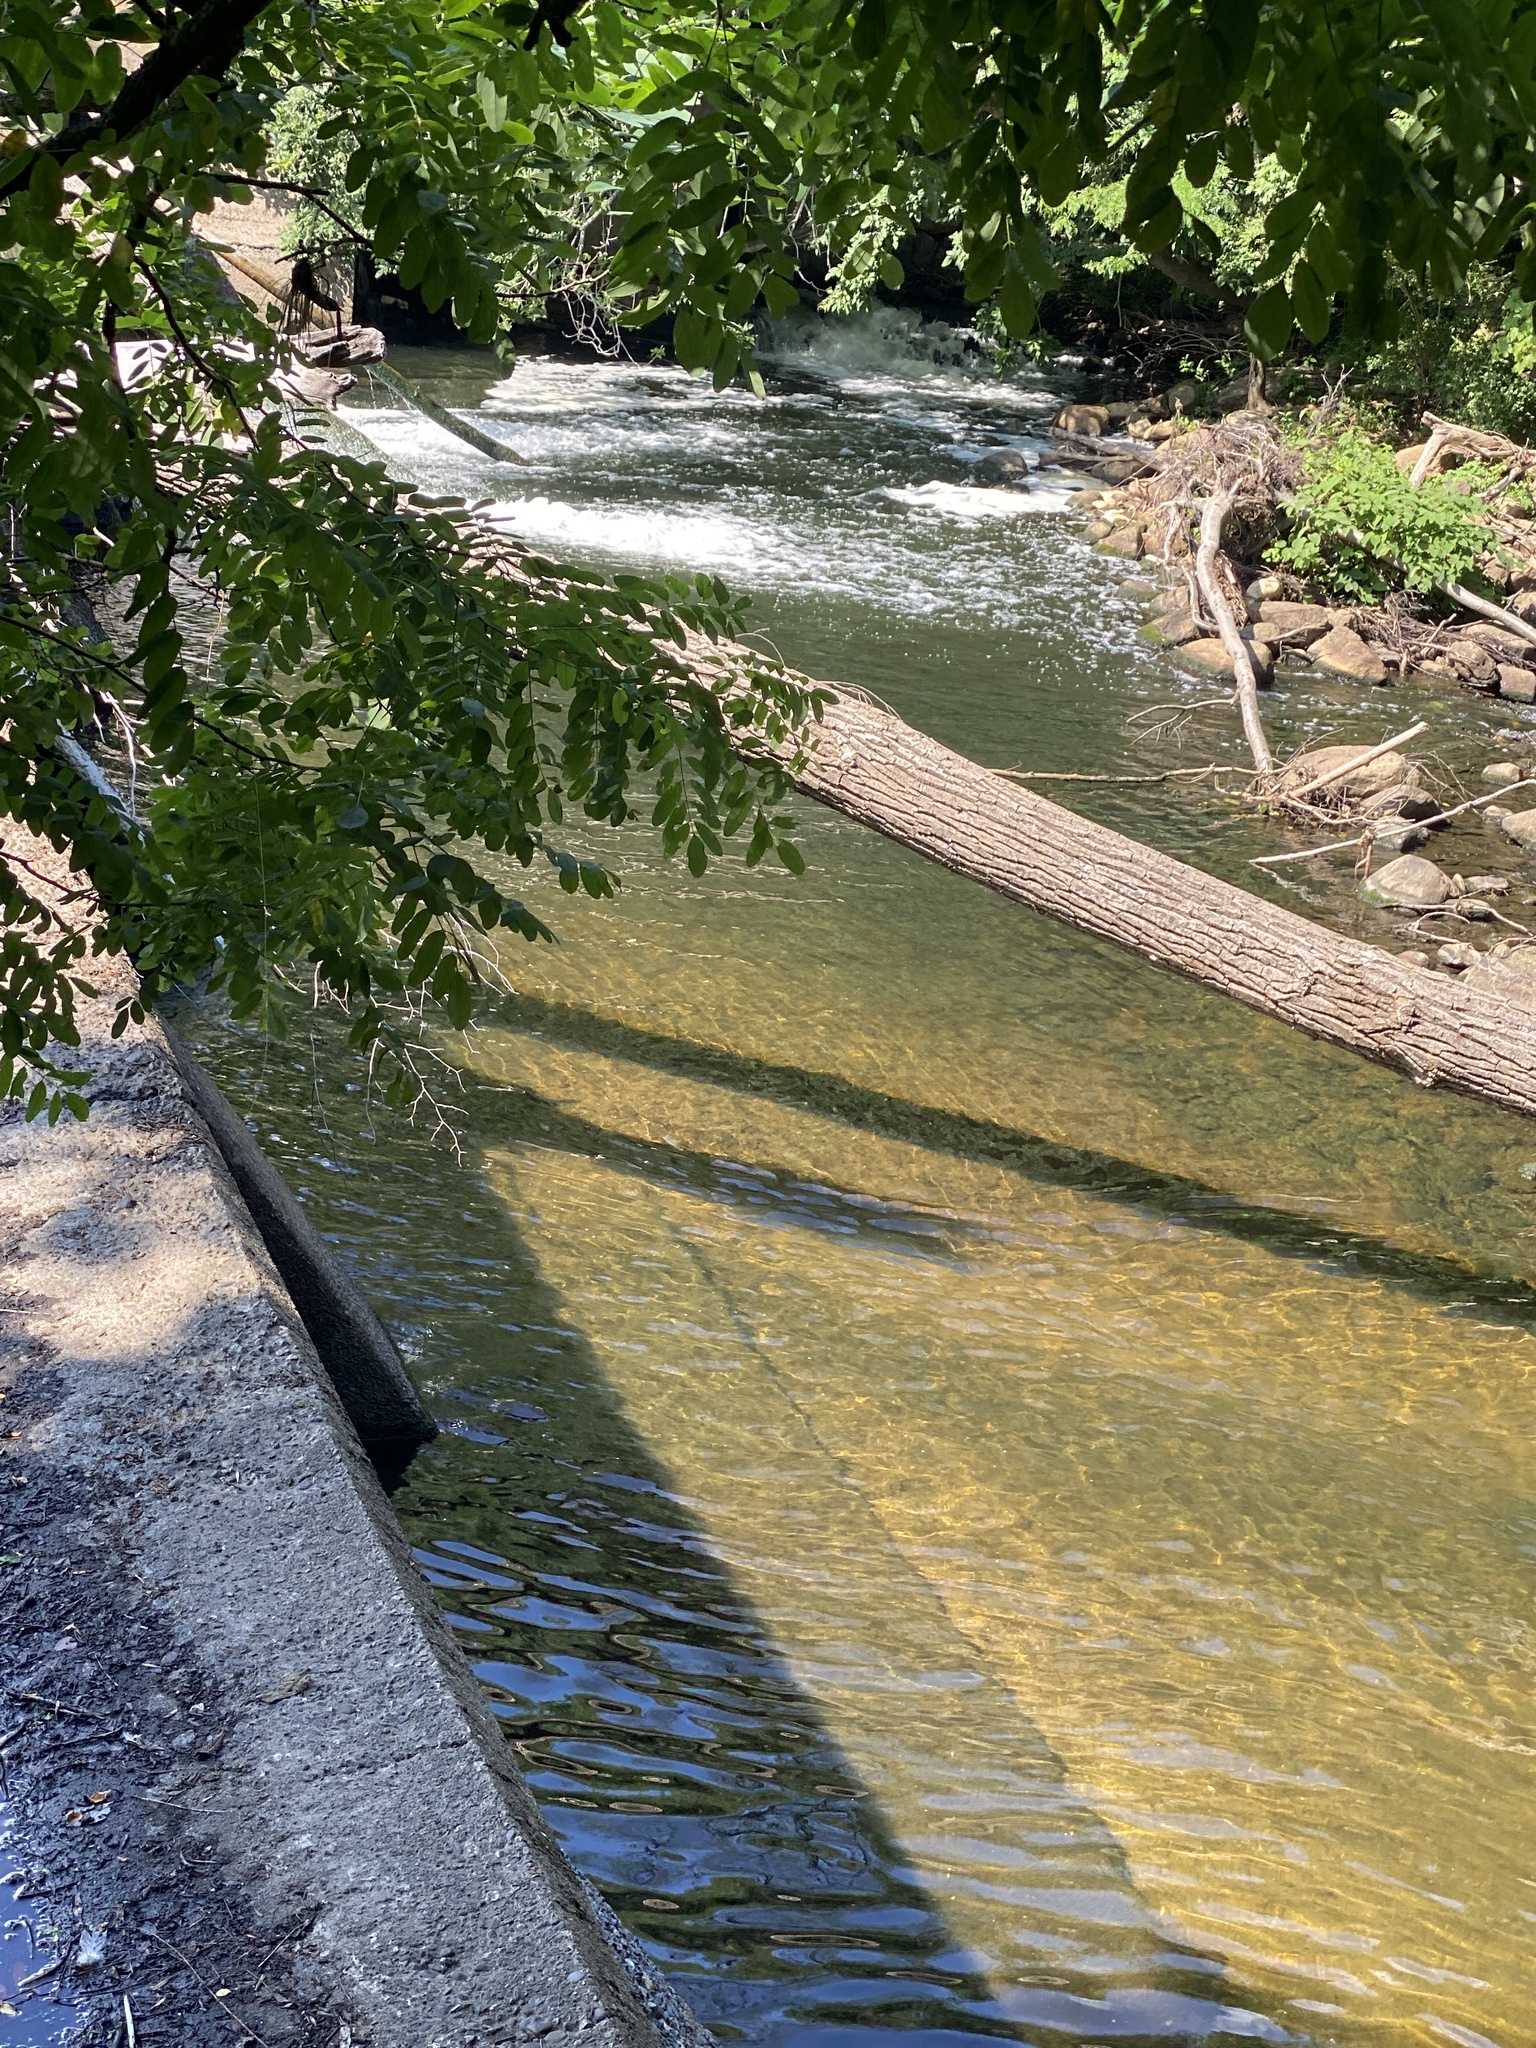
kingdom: Plantae
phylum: Tracheophyta
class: Polypodiopsida
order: Polypodiales
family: Aspleniaceae
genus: Asplenium
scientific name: Asplenium platyneuron
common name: Ebony spleenwort
